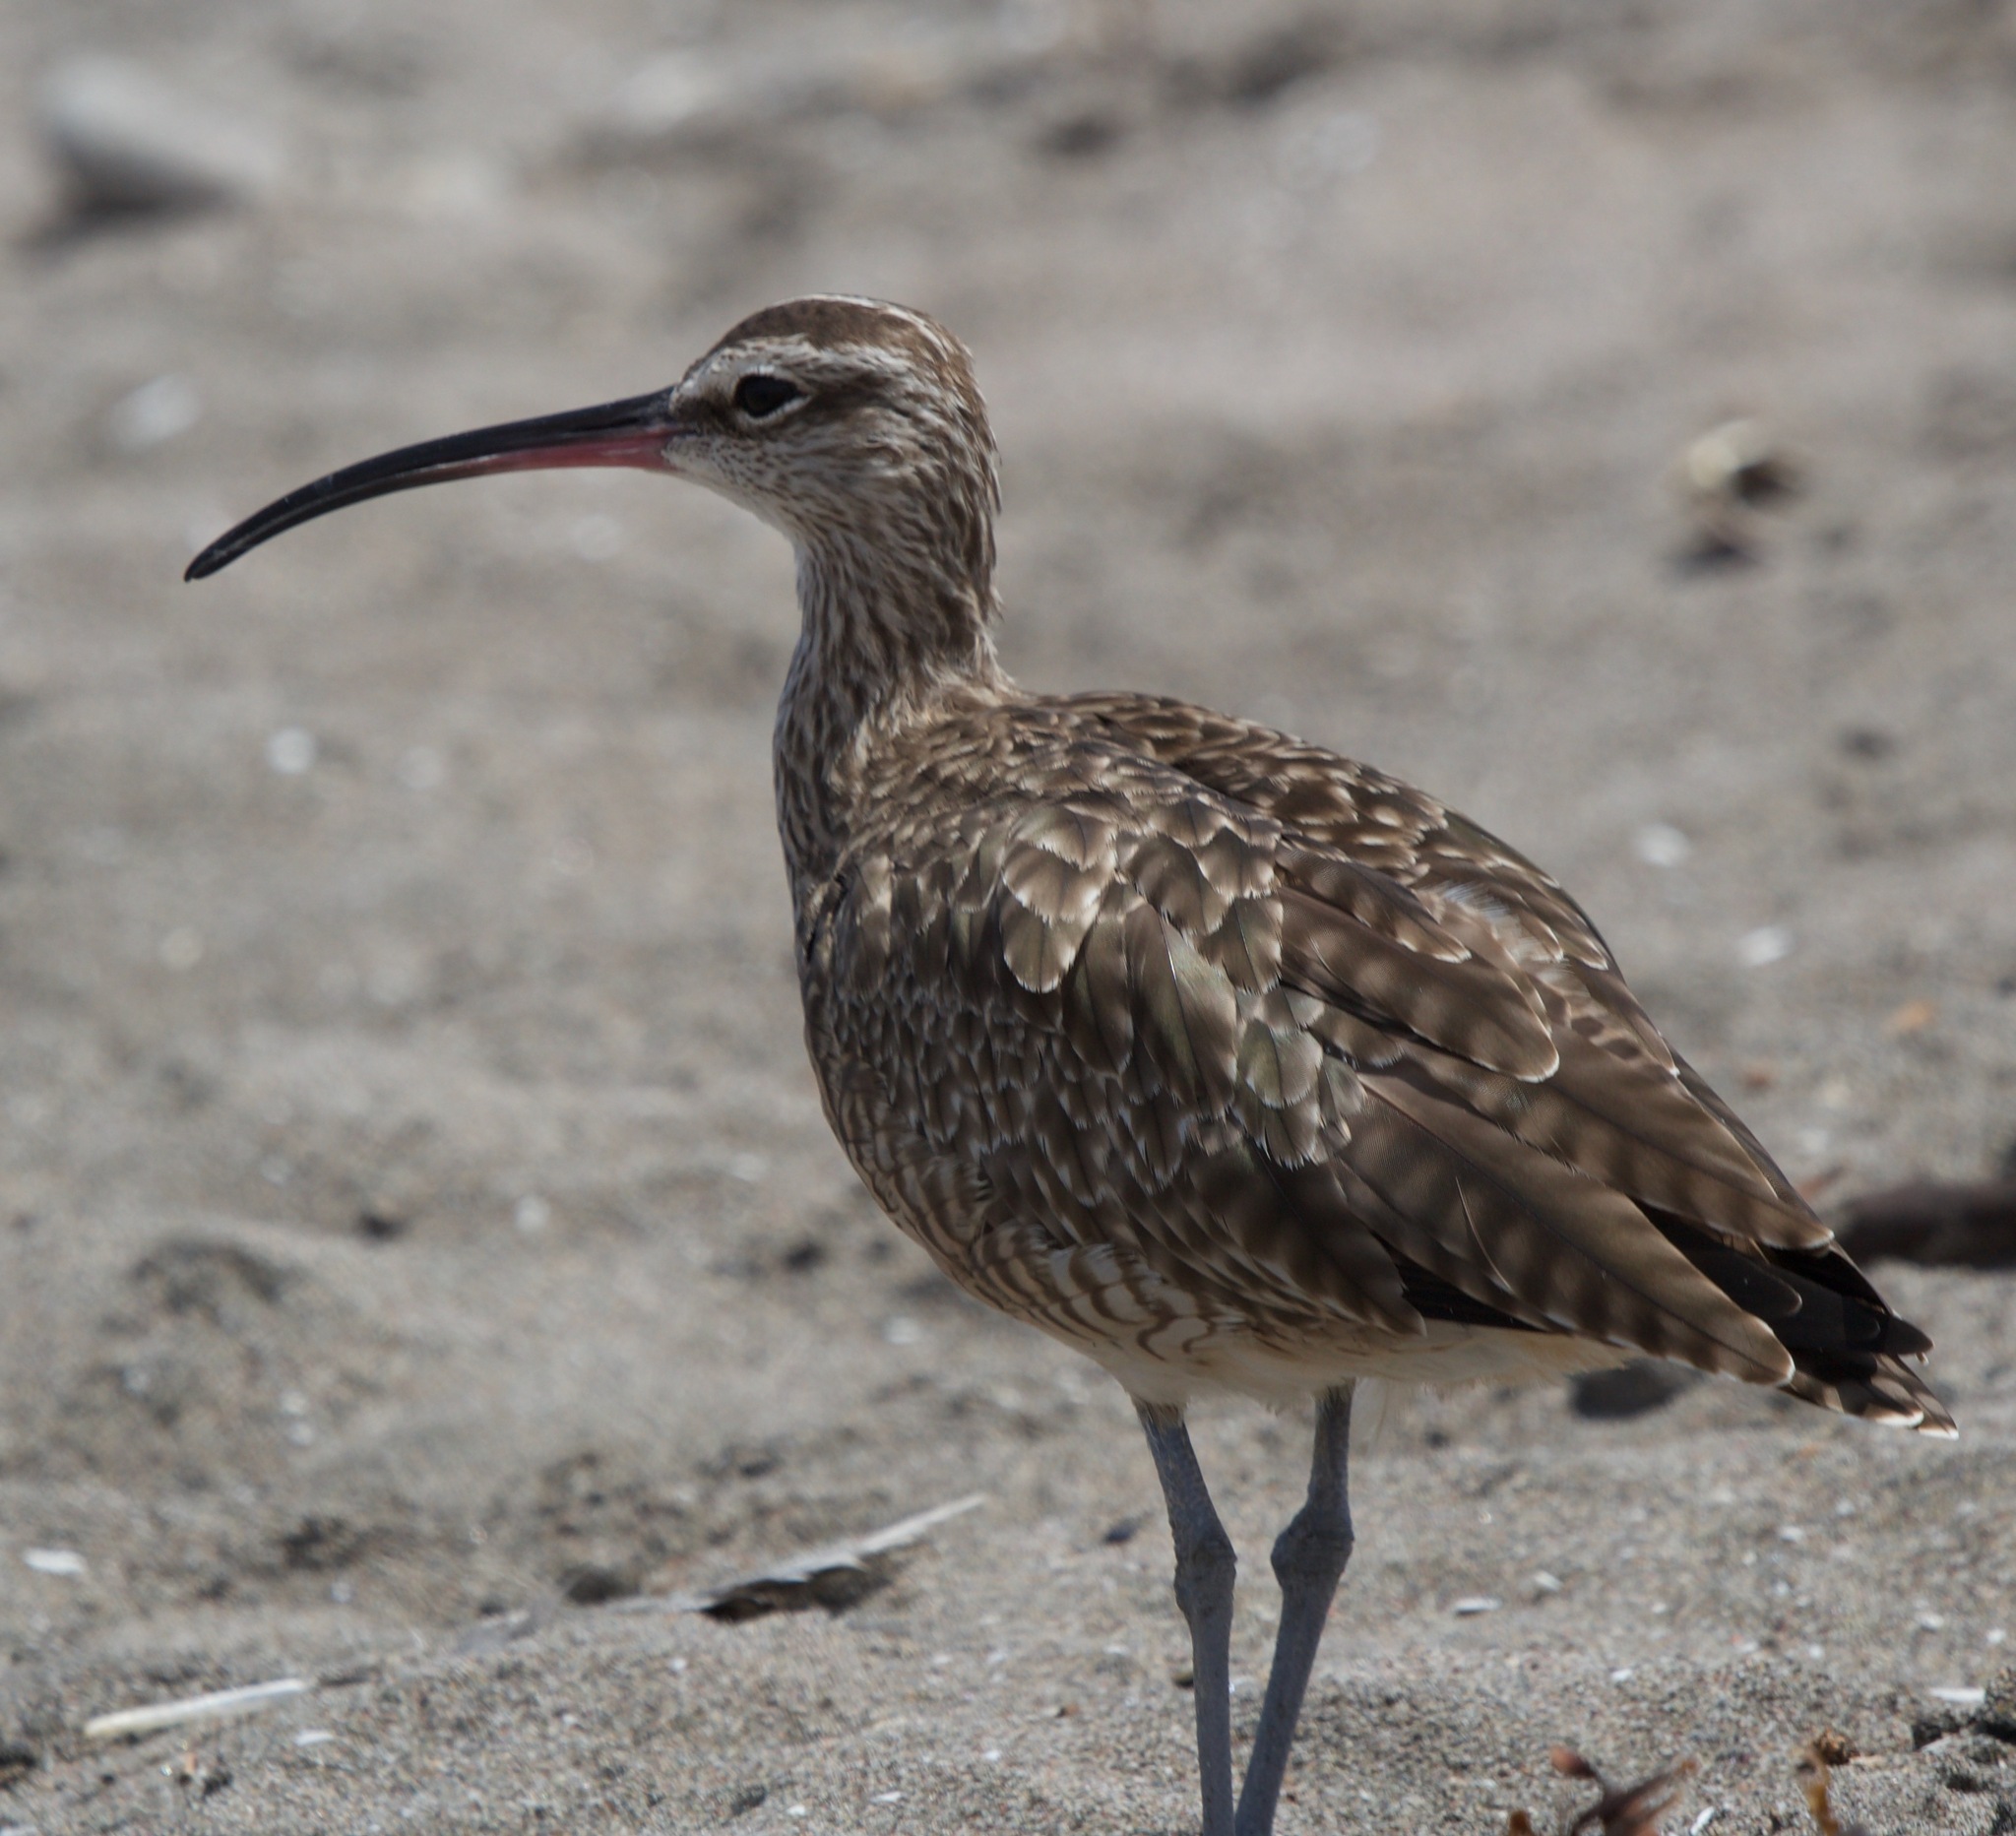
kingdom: Animalia
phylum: Chordata
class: Aves
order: Charadriiformes
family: Scolopacidae
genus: Numenius
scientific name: Numenius phaeopus
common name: Whimbrel
